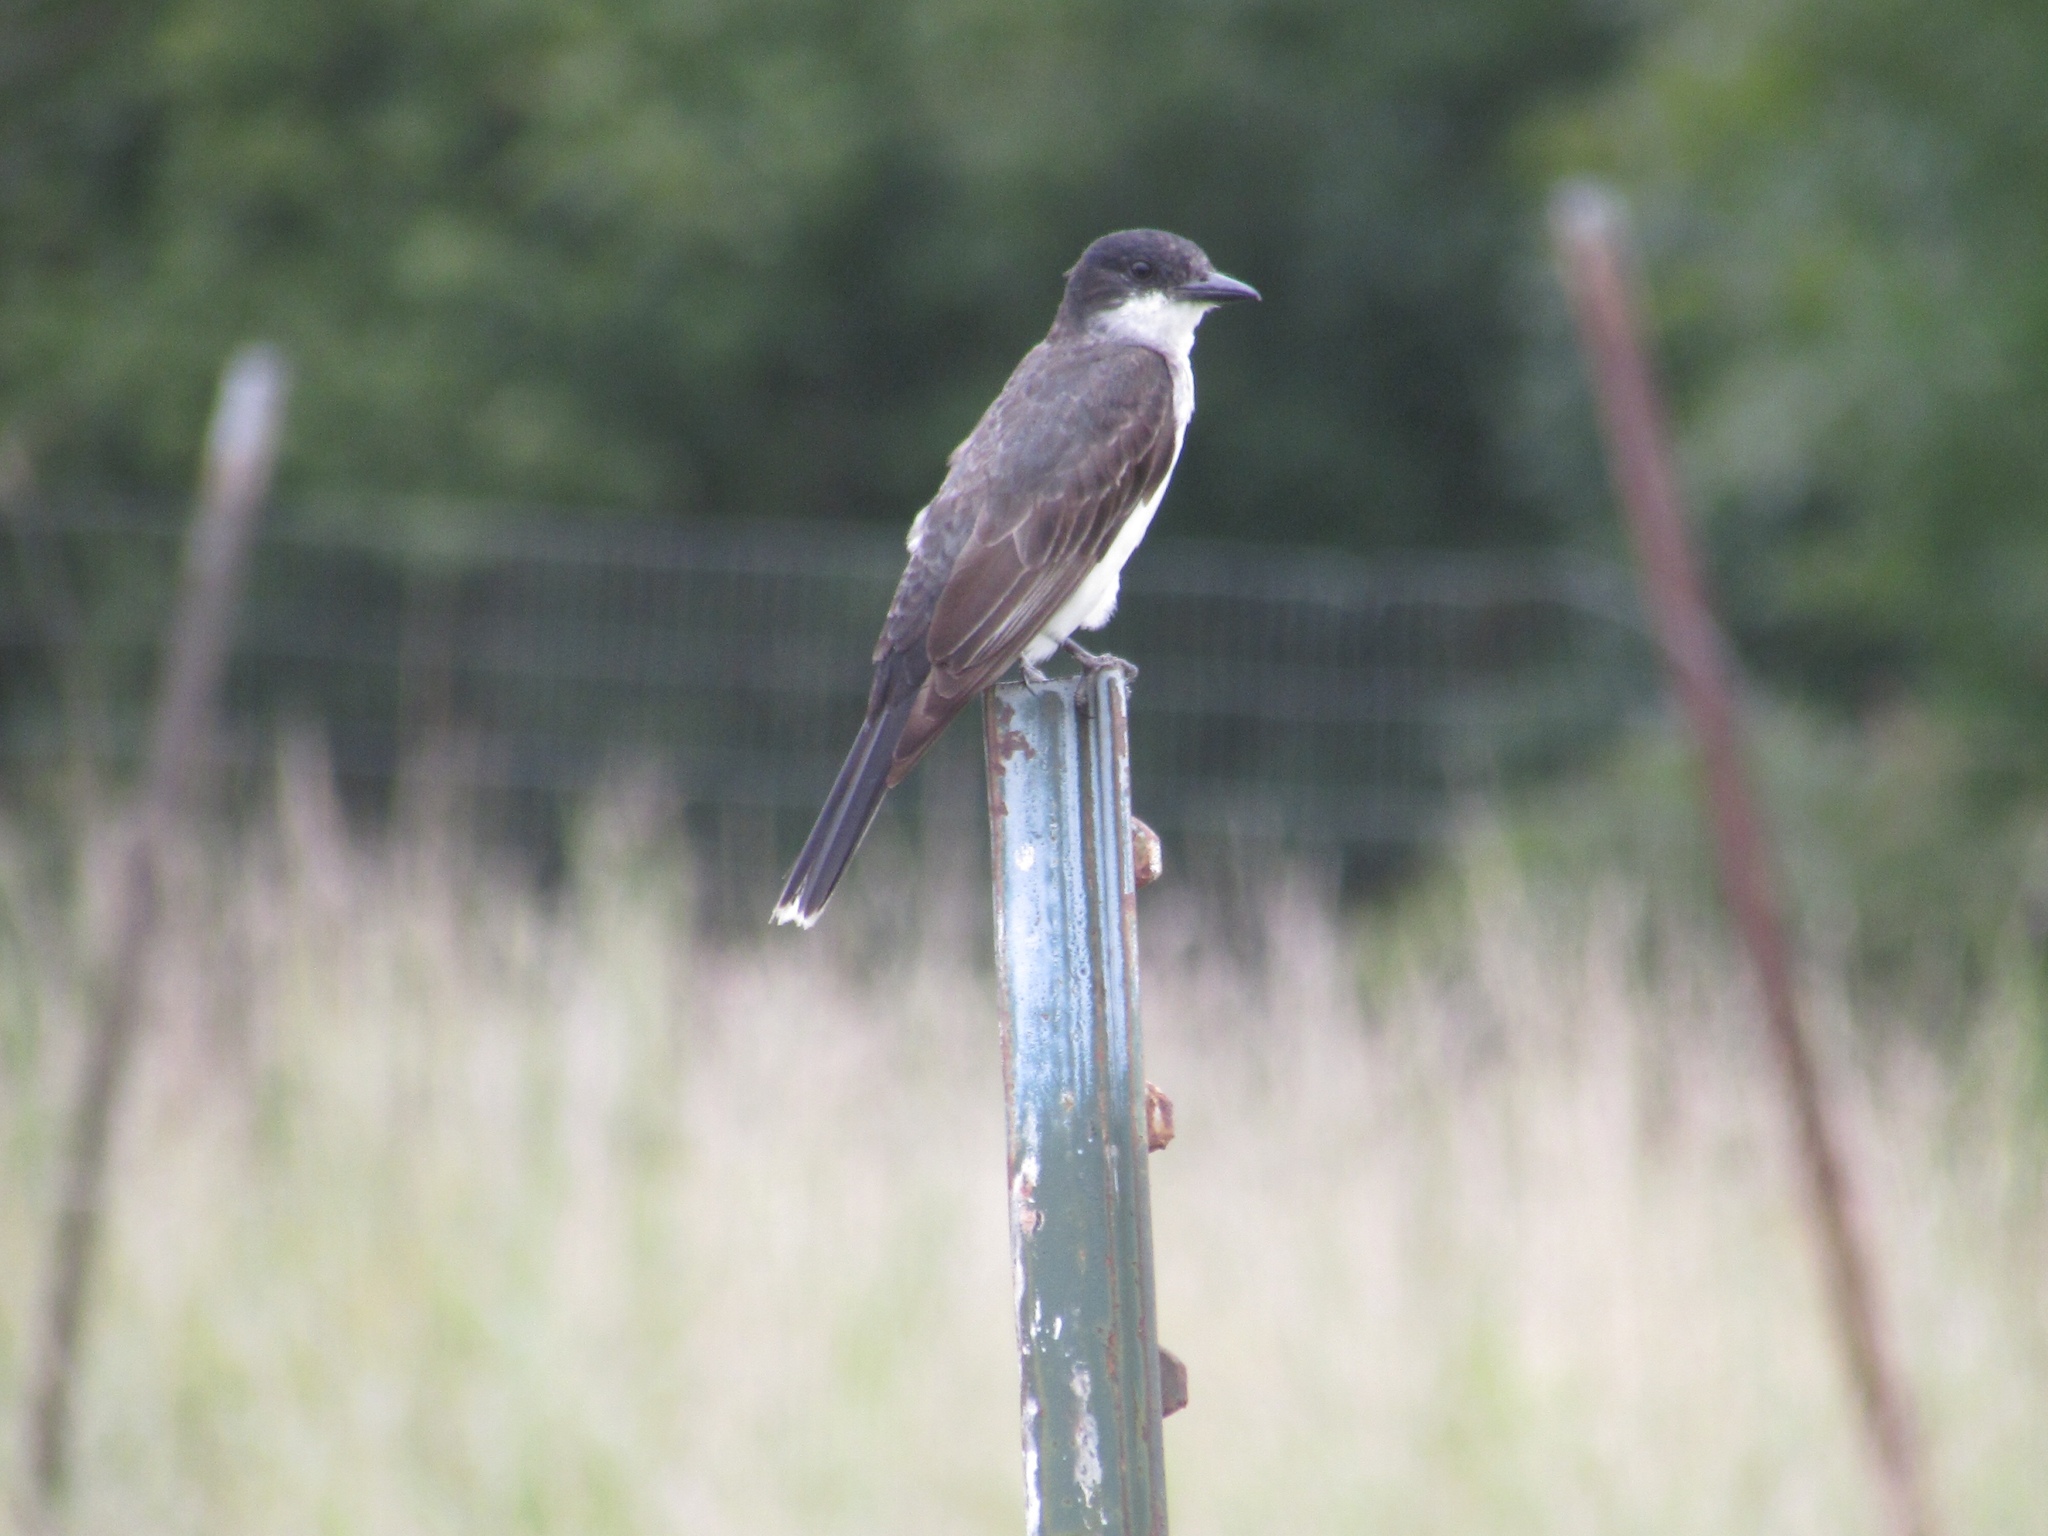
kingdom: Animalia
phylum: Chordata
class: Aves
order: Passeriformes
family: Tyrannidae
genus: Tyrannus
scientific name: Tyrannus tyrannus
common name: Eastern kingbird
